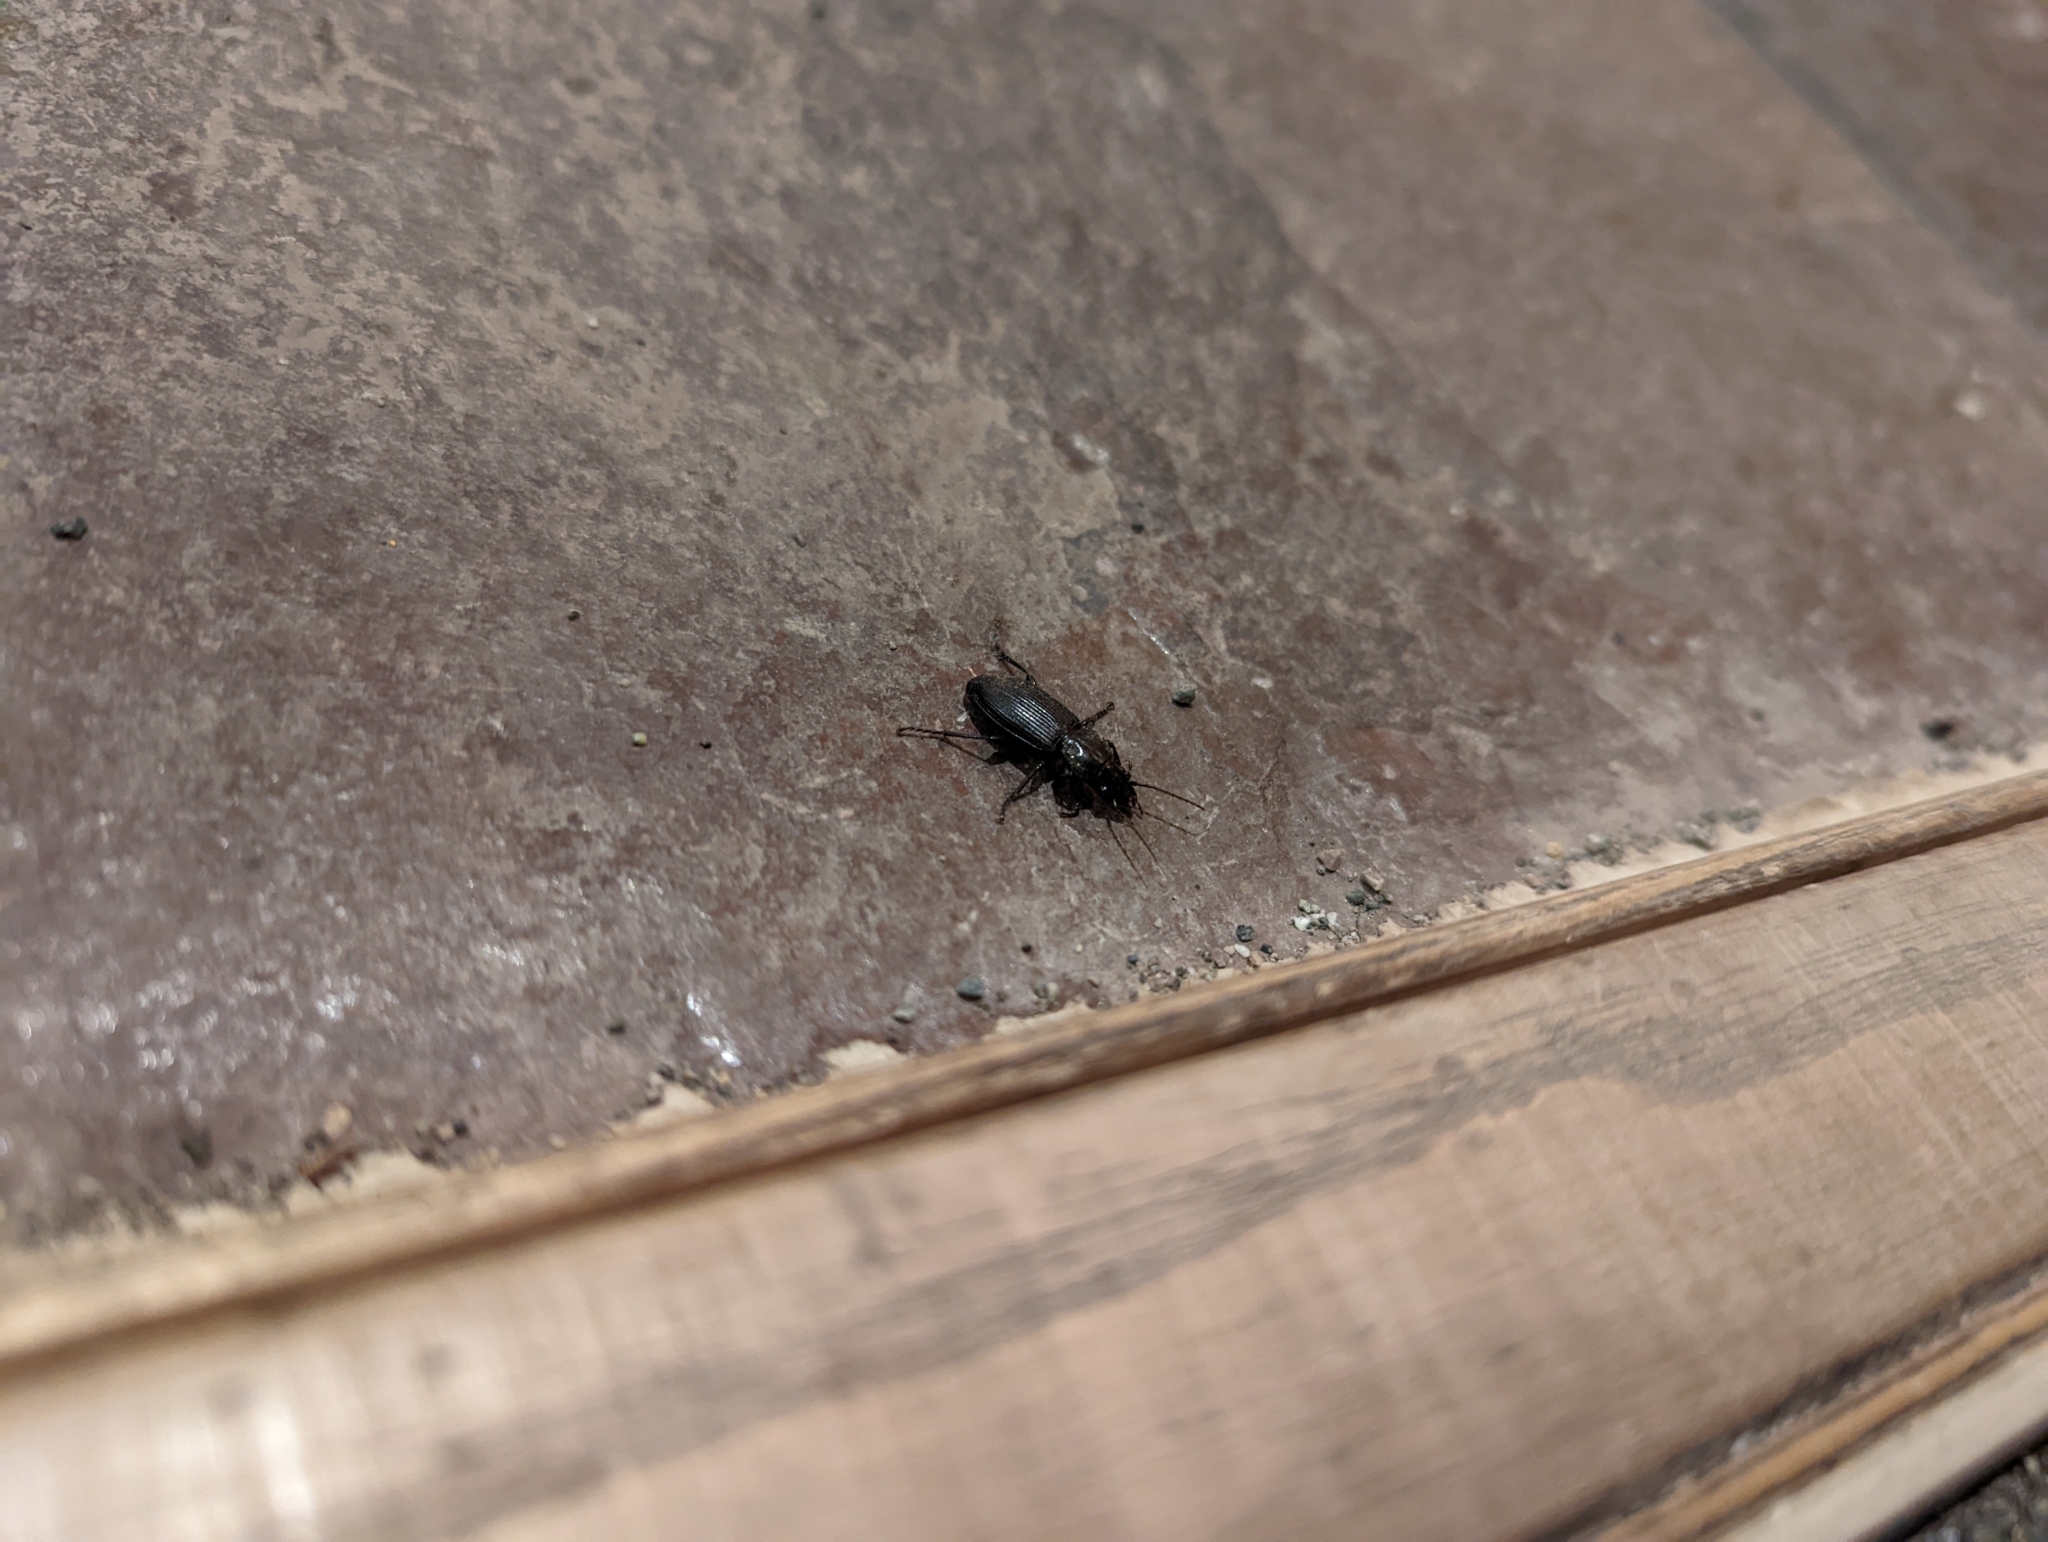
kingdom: Animalia
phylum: Arthropoda
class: Insecta
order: Coleoptera
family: Carabidae
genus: Pterostichus
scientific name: Pterostichus melanarius
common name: European dark harp ground beetle
